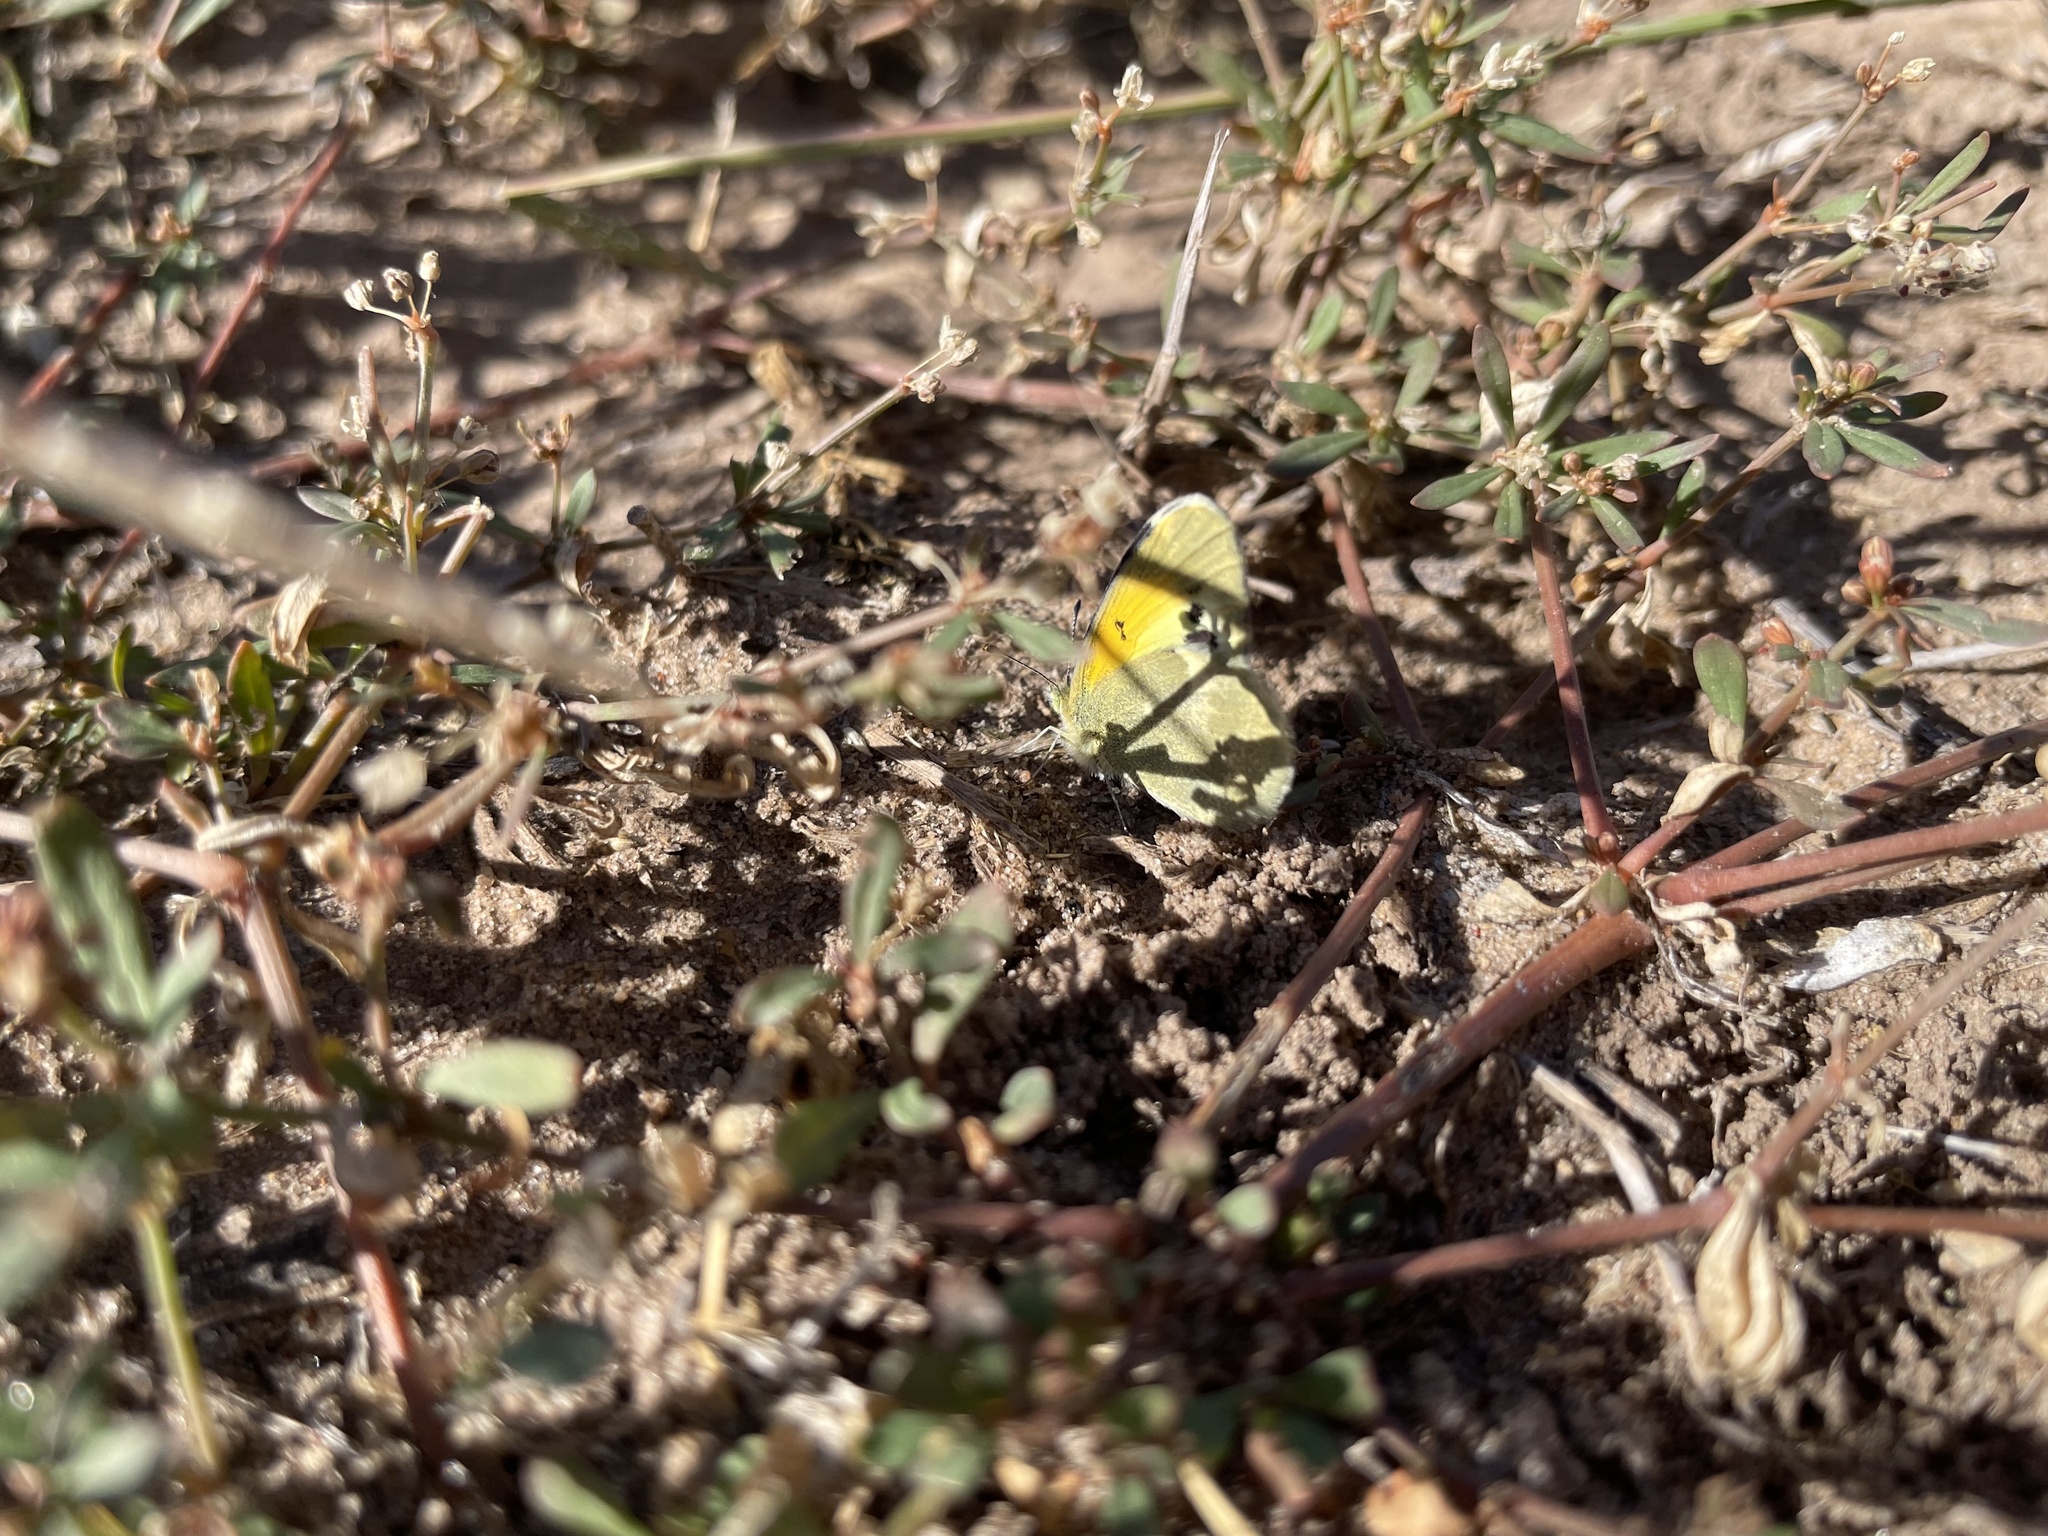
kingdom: Animalia
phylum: Arthropoda
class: Insecta
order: Lepidoptera
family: Pieridae
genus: Nathalis
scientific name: Nathalis iole
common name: Dainty sulphur
